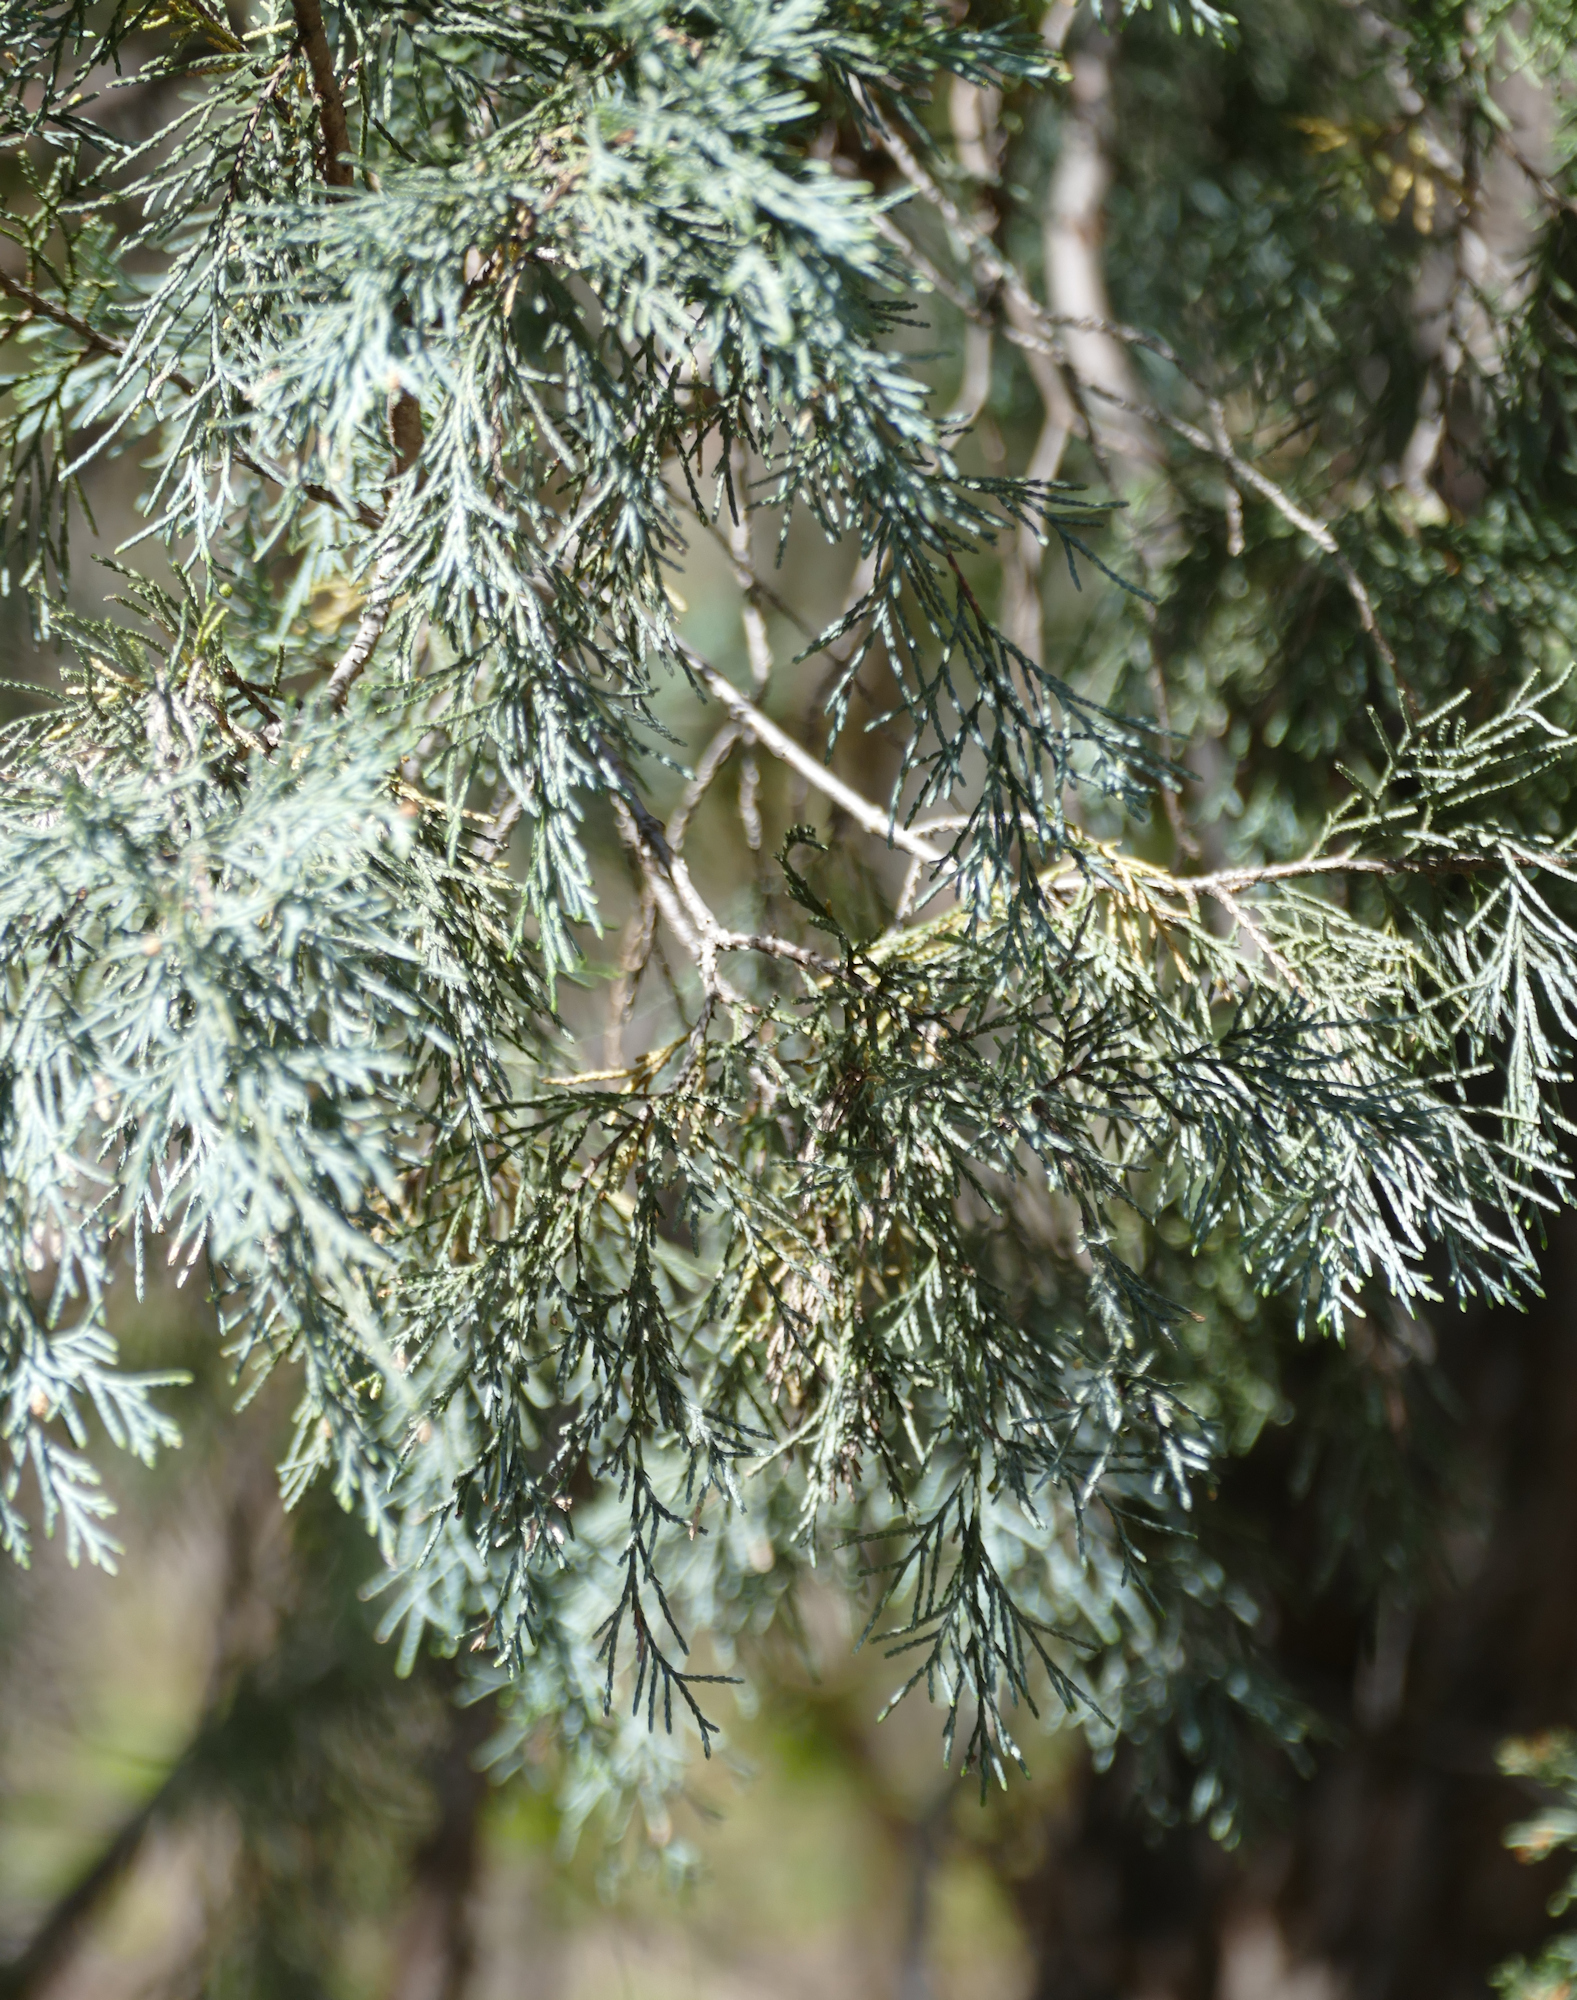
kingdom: Plantae
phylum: Tracheophyta
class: Pinopsida
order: Pinales
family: Cupressaceae
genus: Juniperus
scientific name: Juniperus scopulorum
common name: Rocky mountain juniper
